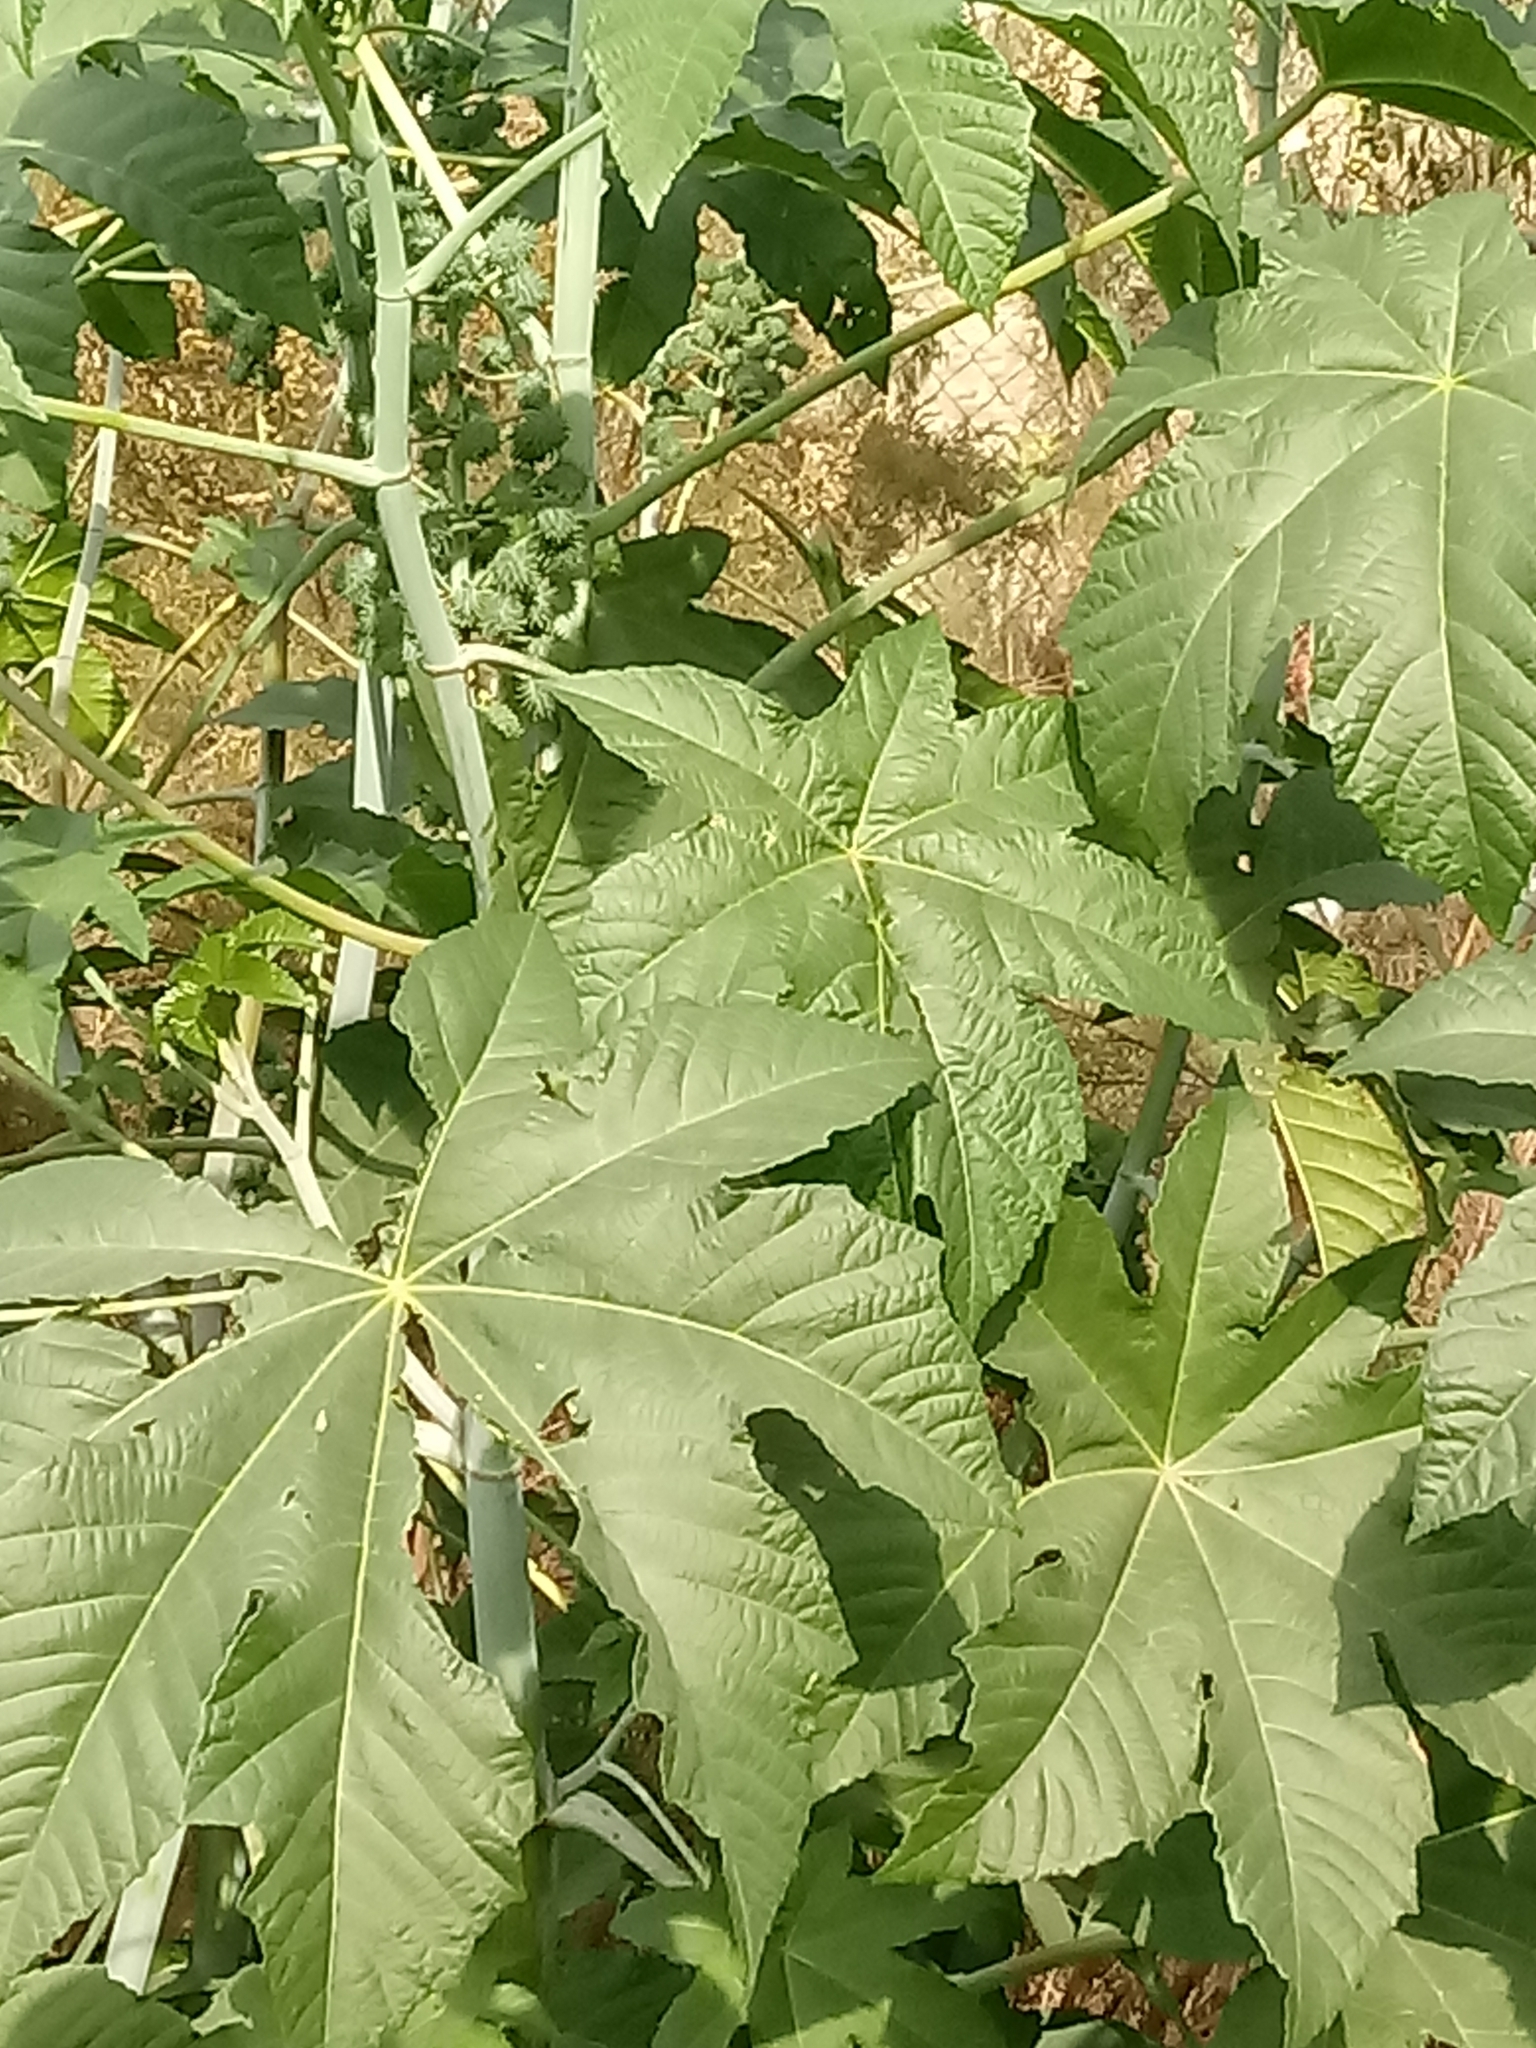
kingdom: Plantae
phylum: Tracheophyta
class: Magnoliopsida
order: Malpighiales
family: Euphorbiaceae
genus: Ricinus
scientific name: Ricinus communis
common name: Castor-oil-plant
